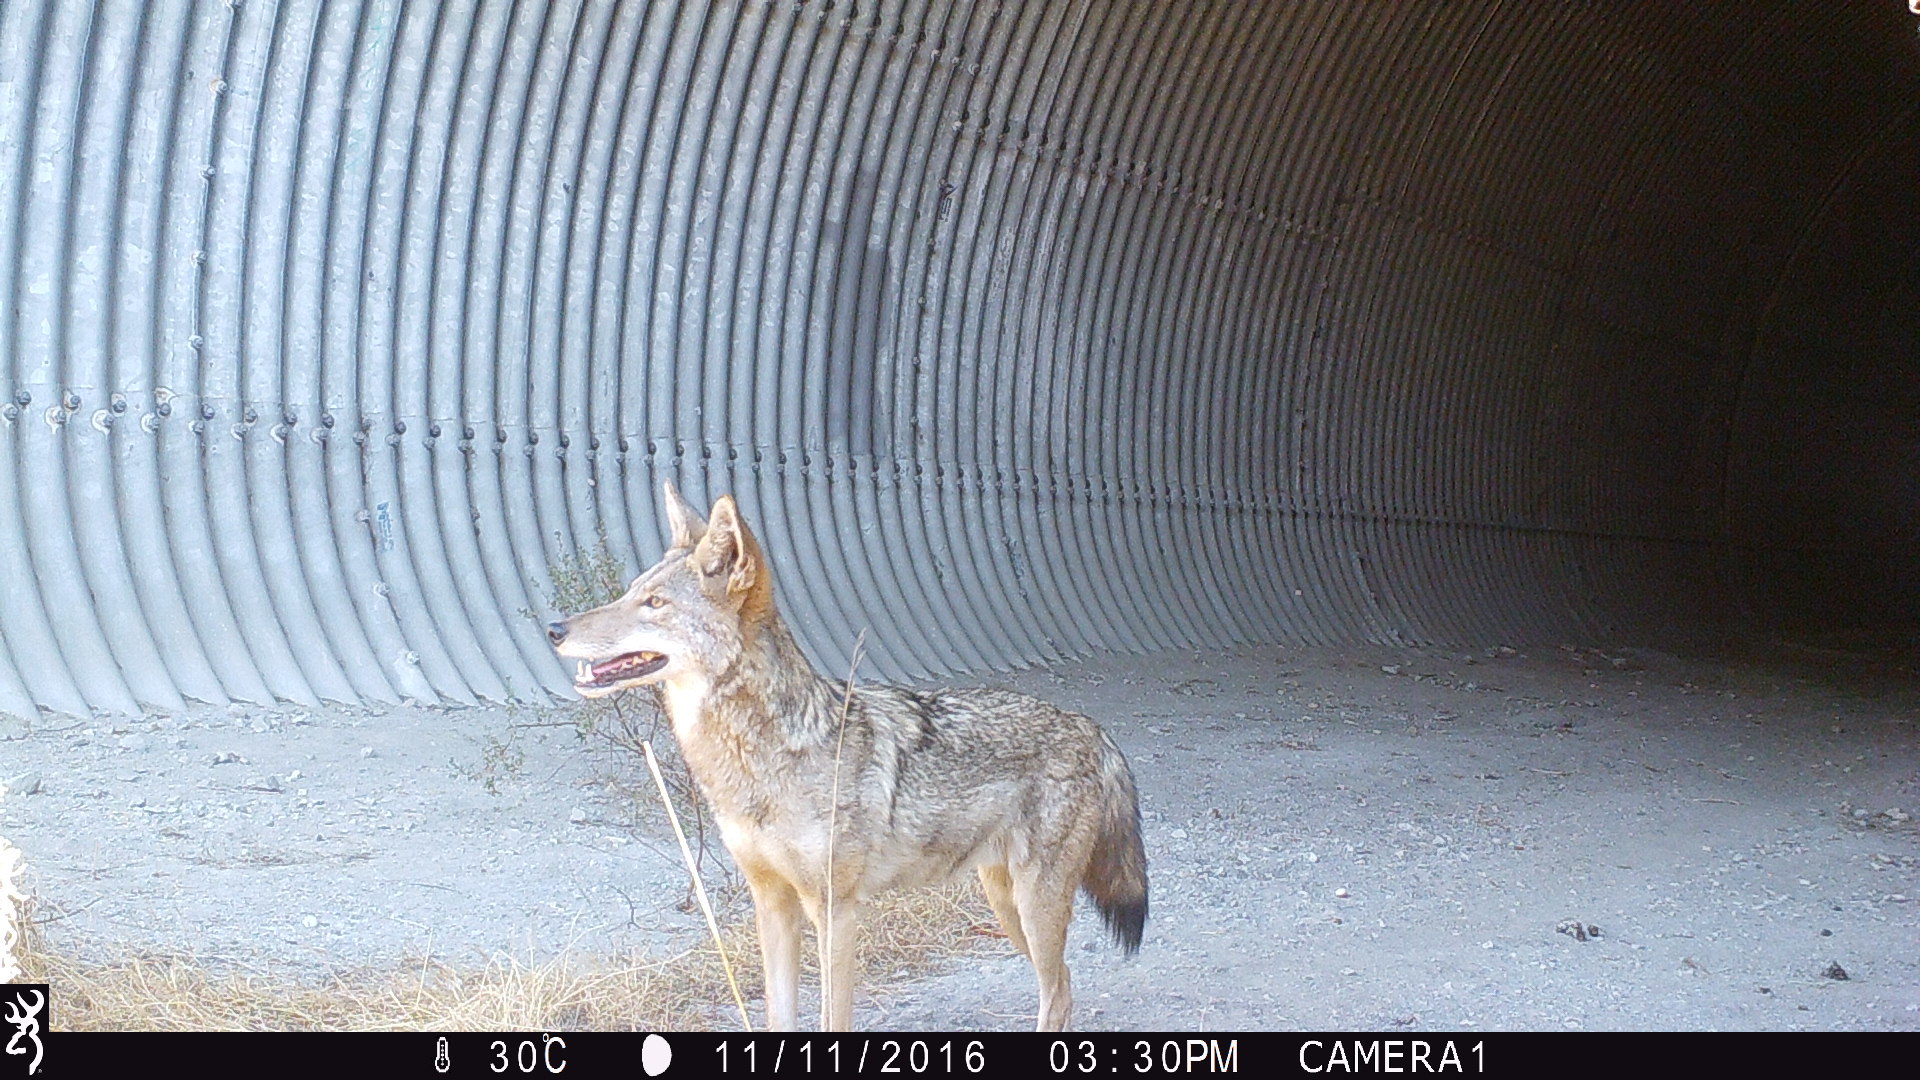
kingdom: Animalia
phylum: Chordata
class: Mammalia
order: Carnivora
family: Canidae
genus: Canis
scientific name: Canis latrans
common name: Coyote
